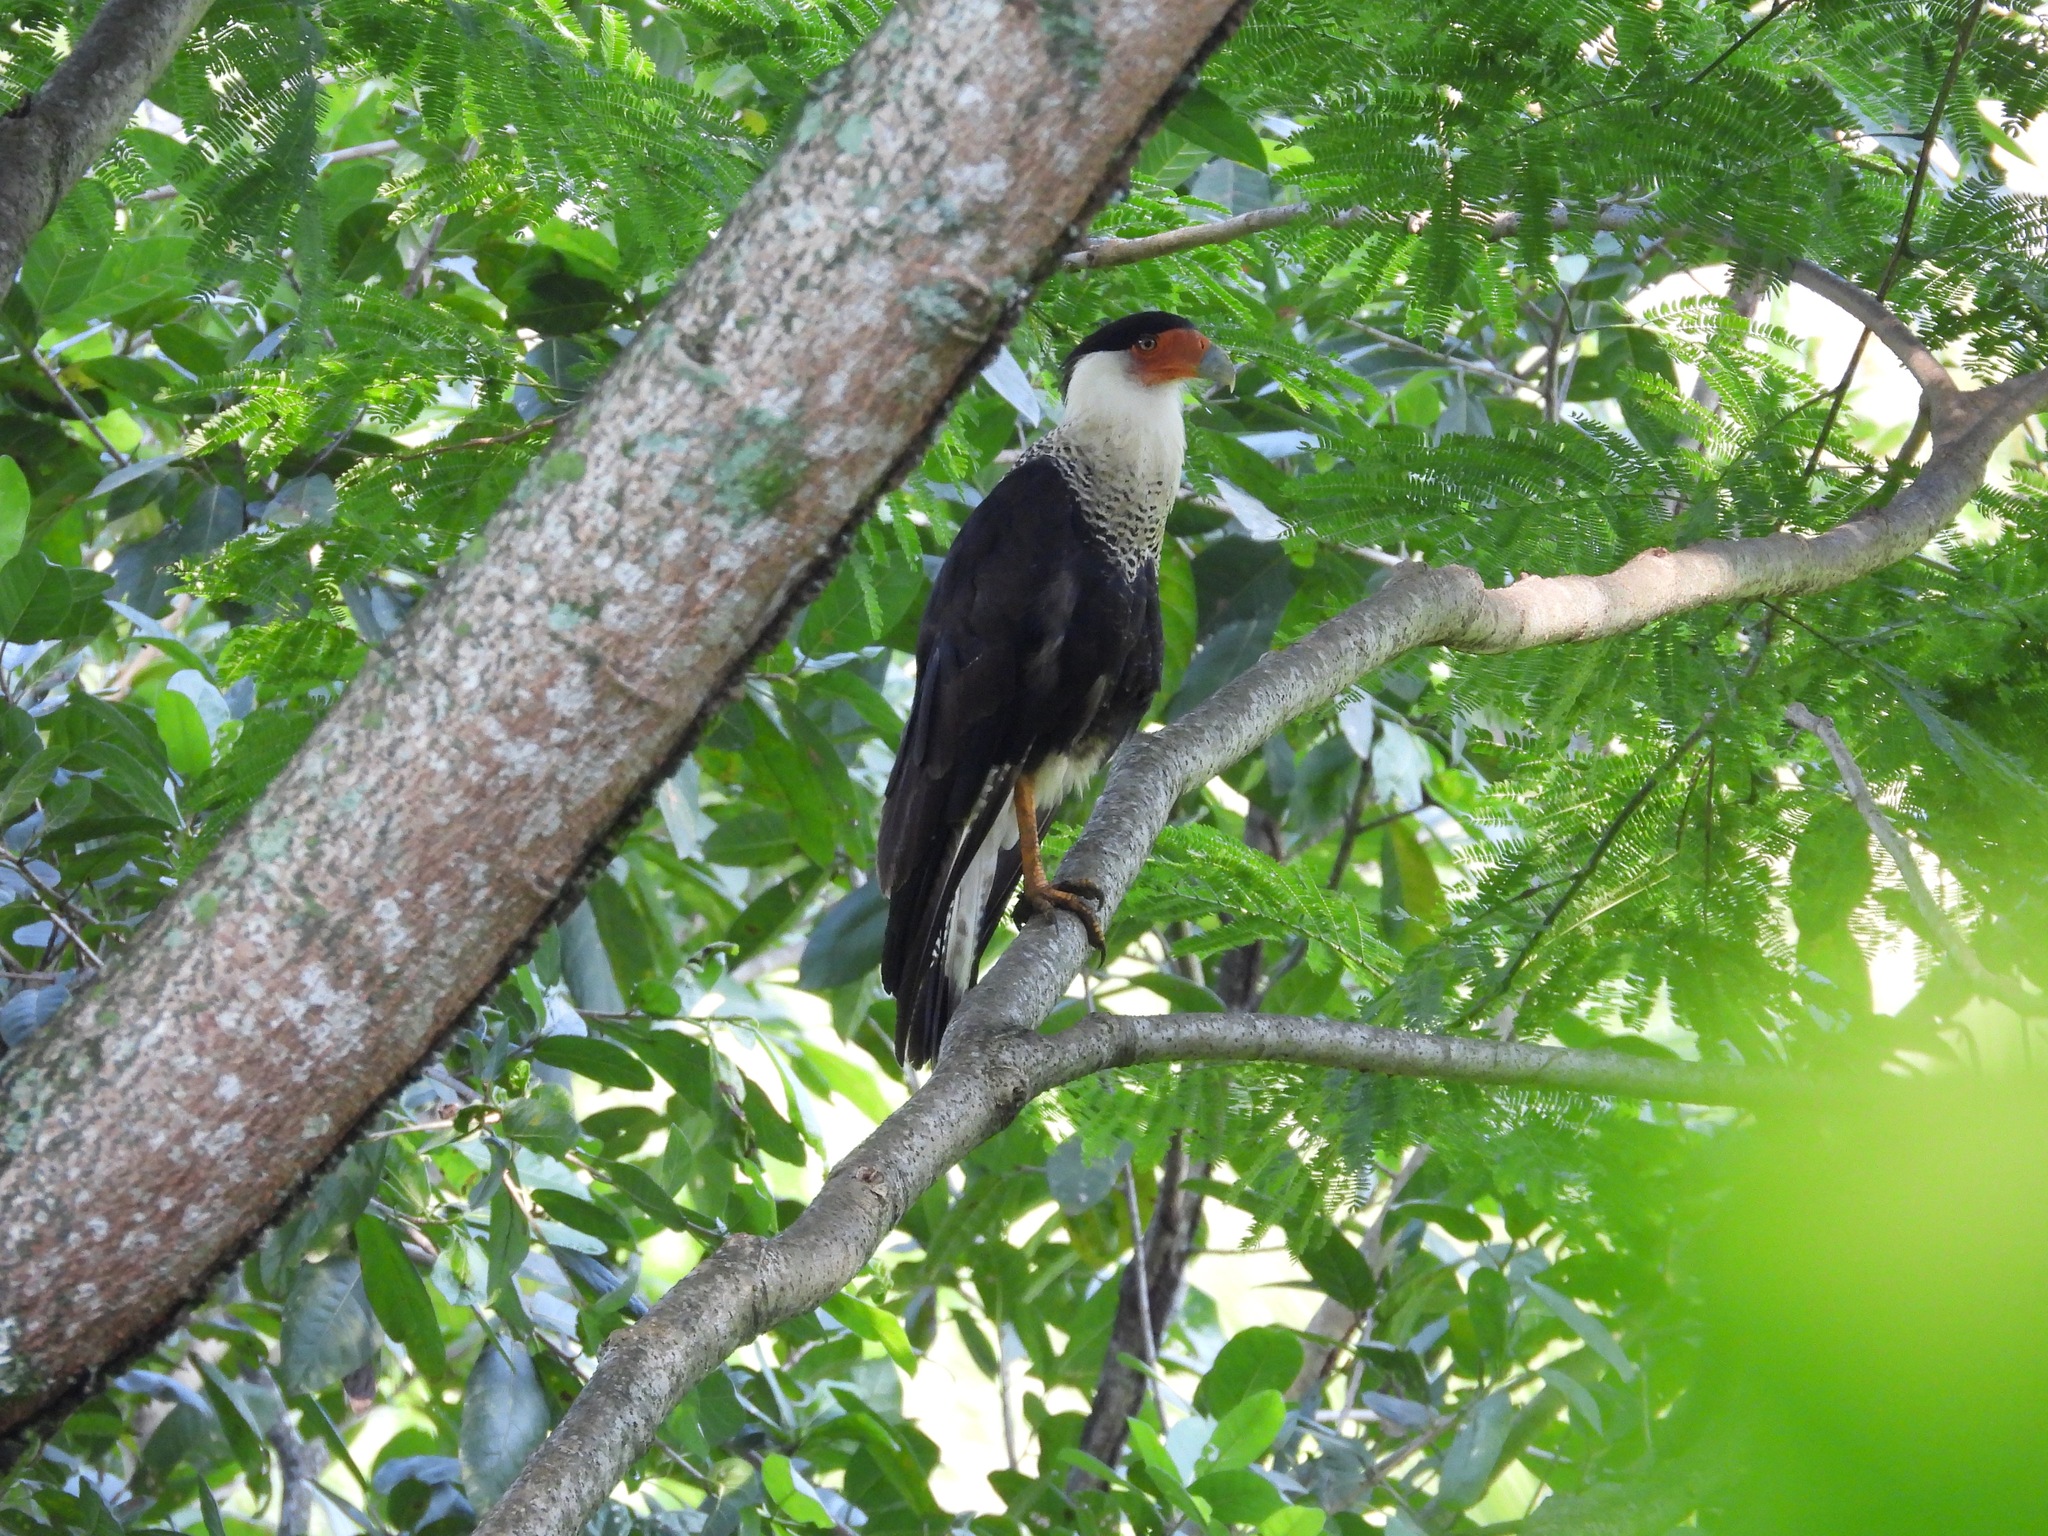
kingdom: Animalia
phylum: Chordata
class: Aves
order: Falconiformes
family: Falconidae
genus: Caracara
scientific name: Caracara plancus
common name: Southern caracara
